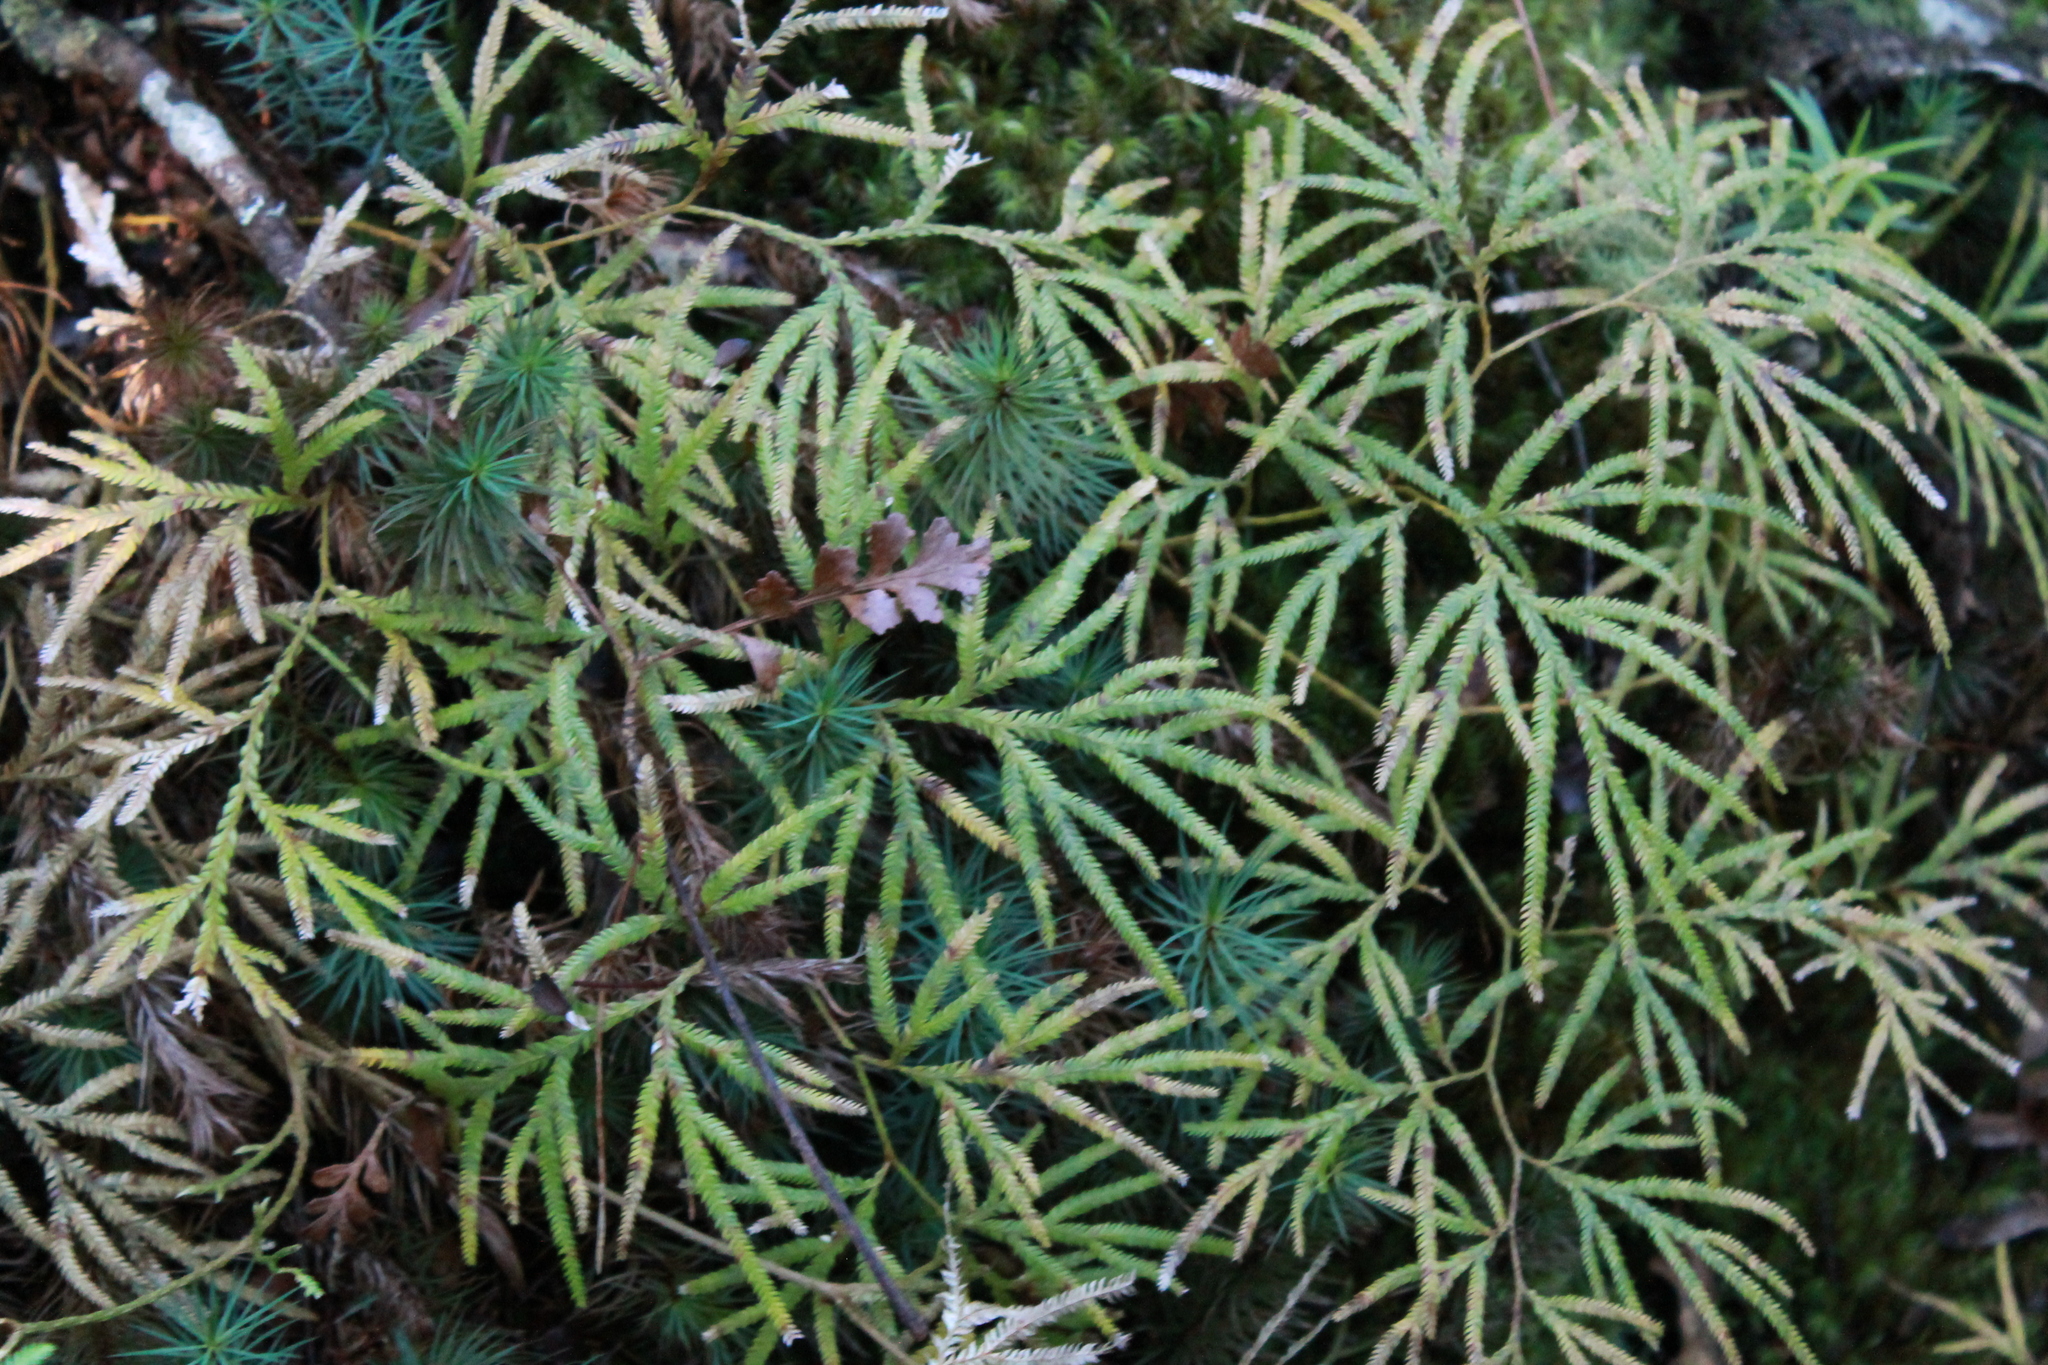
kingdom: Plantae
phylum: Tracheophyta
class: Lycopodiopsida
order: Lycopodiales
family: Lycopodiaceae
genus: Lycopodium
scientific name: Lycopodium volubile
